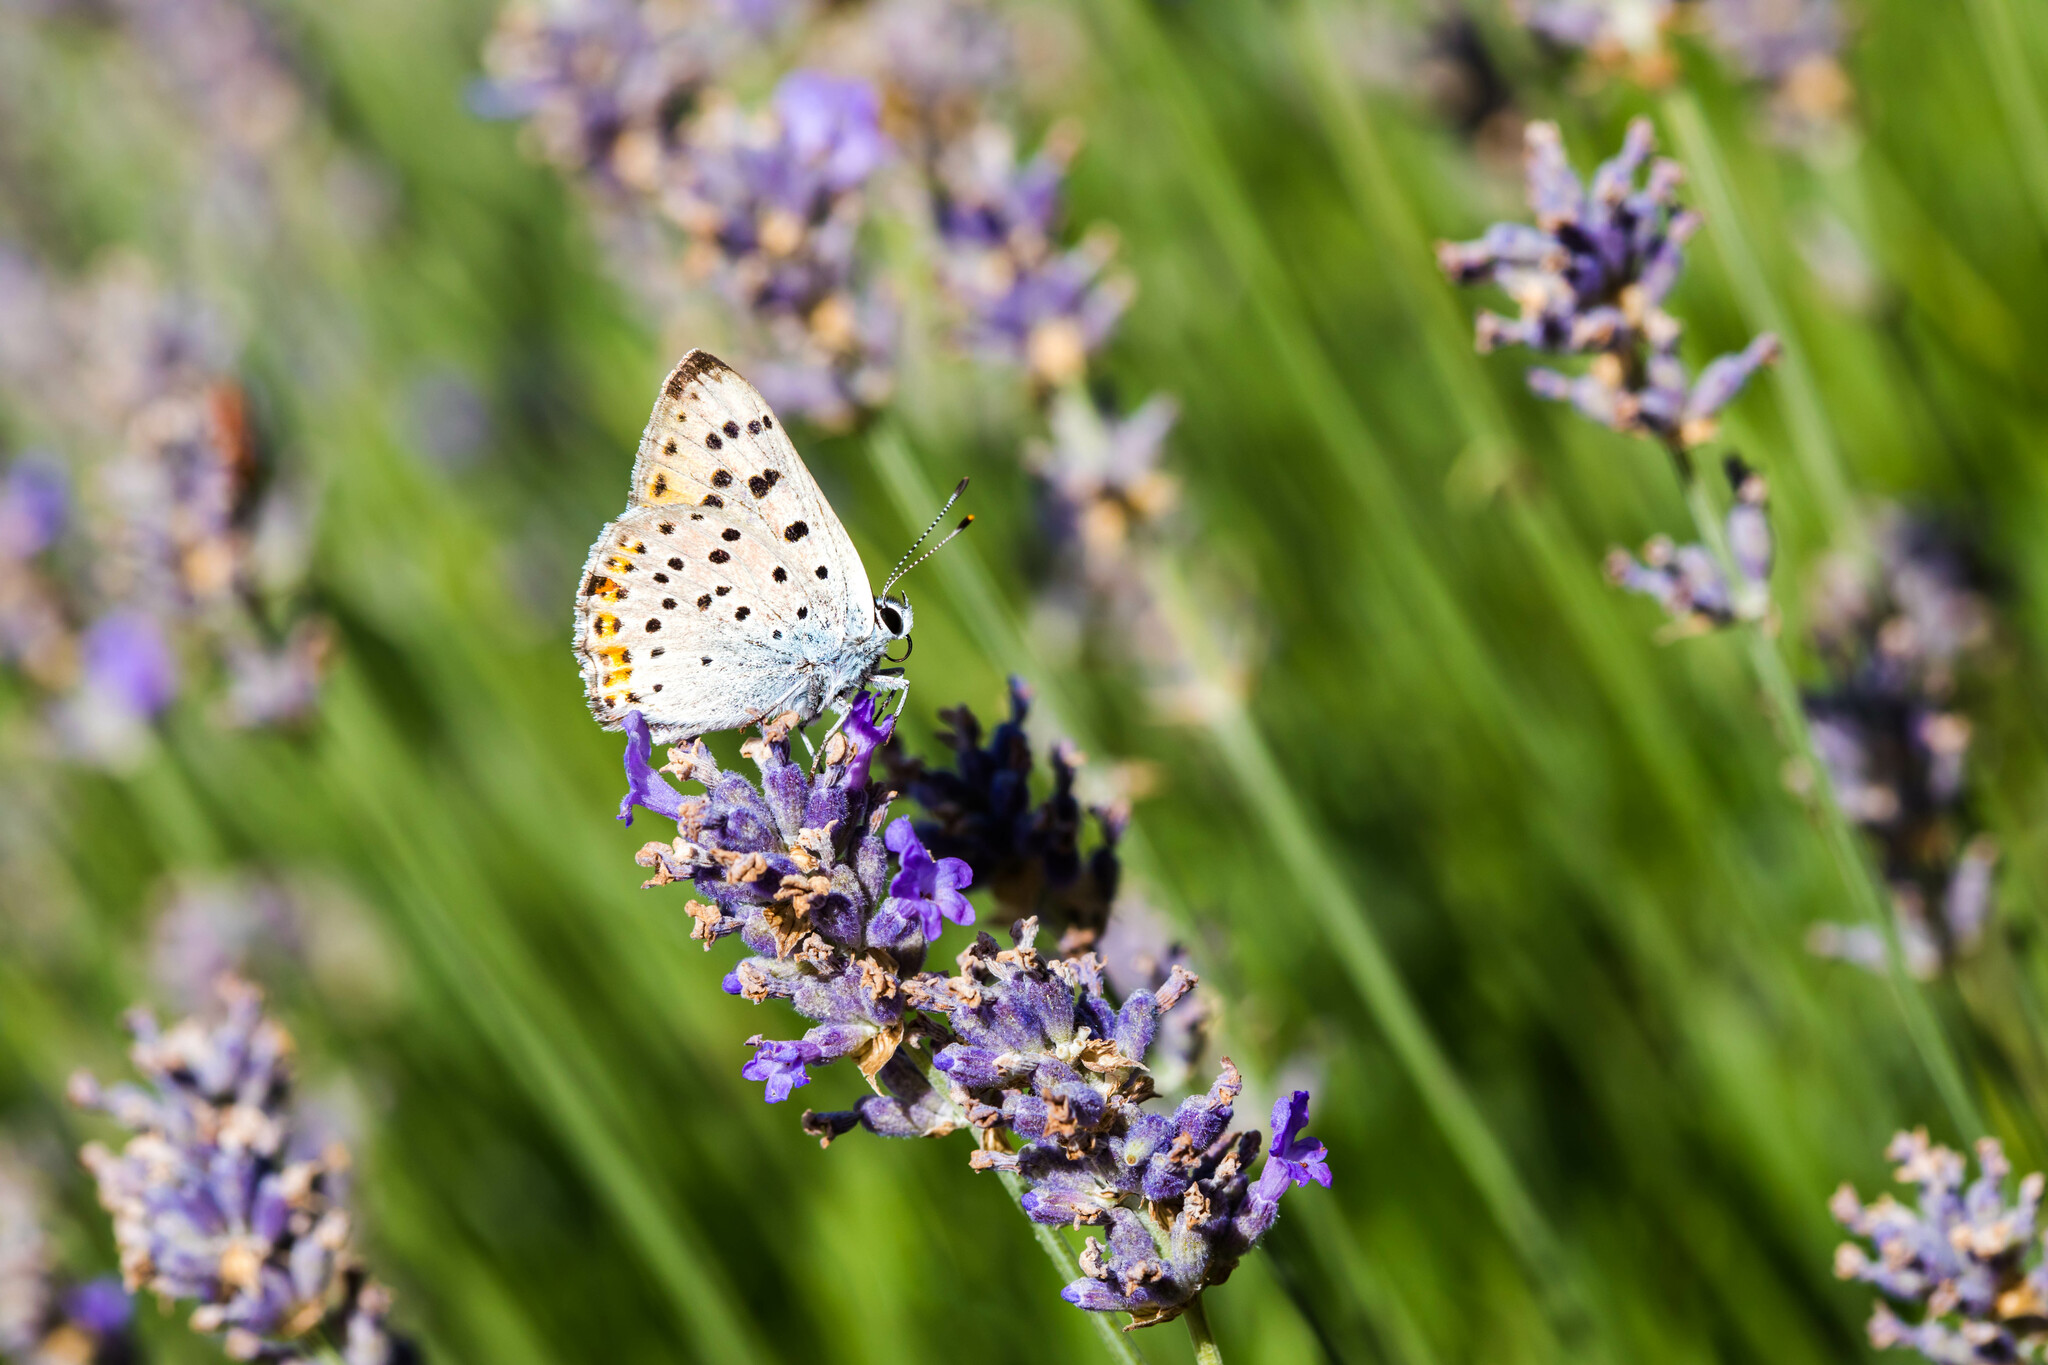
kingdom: Animalia
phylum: Arthropoda
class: Insecta
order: Lepidoptera
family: Lycaenidae
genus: Loweia
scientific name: Loweia tityrus
